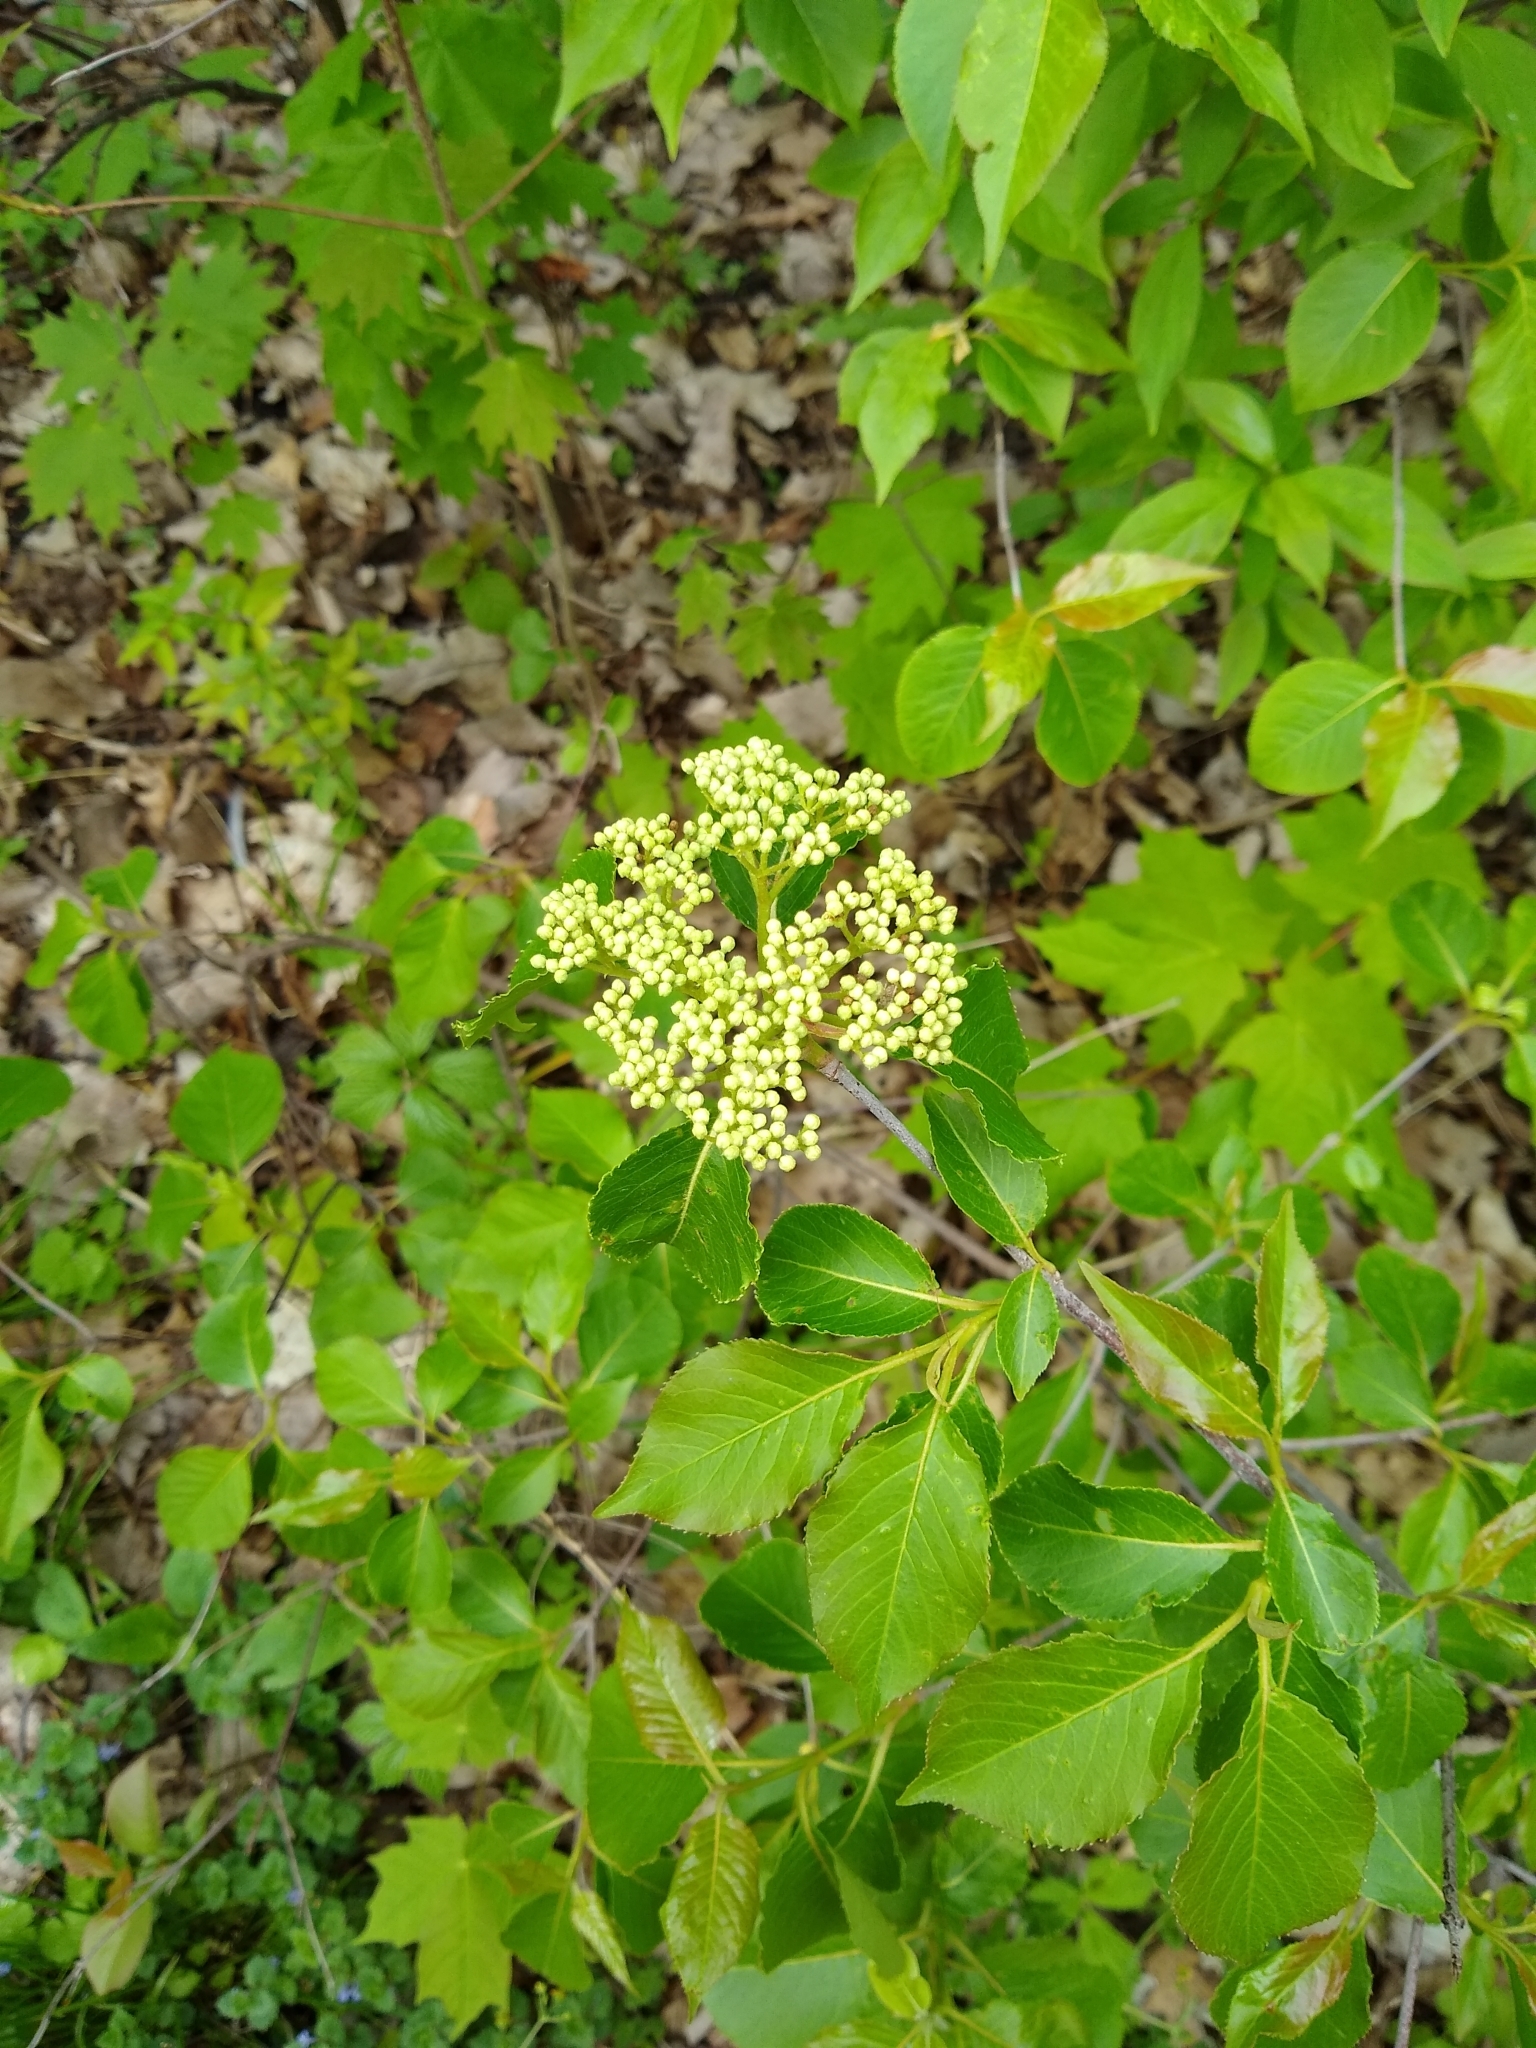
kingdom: Plantae
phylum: Tracheophyta
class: Magnoliopsida
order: Dipsacales
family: Viburnaceae
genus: Viburnum
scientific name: Viburnum lentago
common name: Black haw
